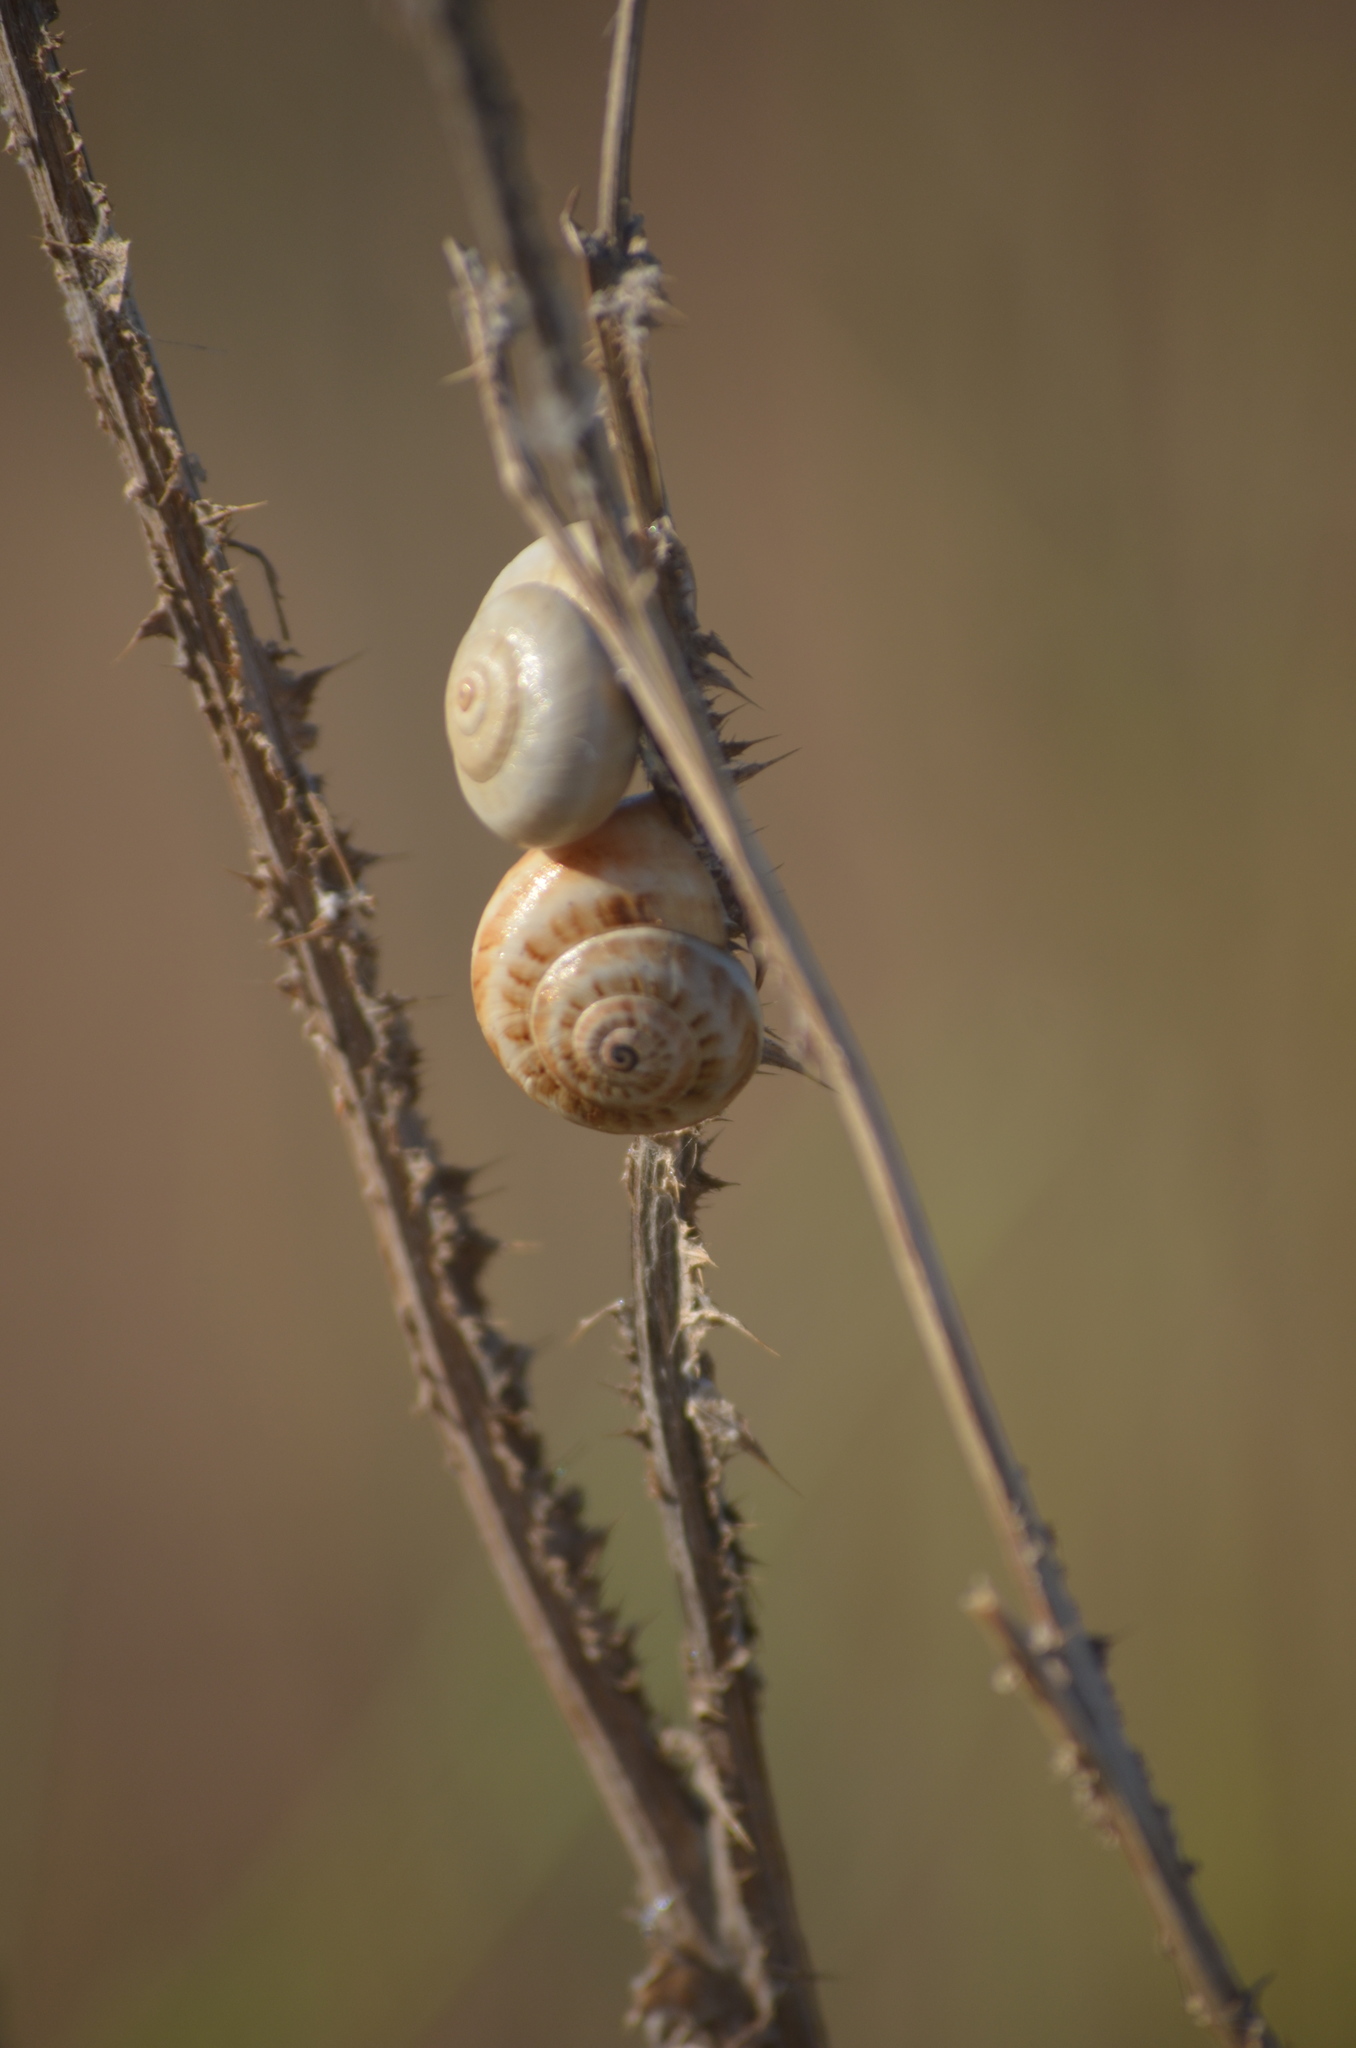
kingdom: Animalia
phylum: Mollusca
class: Gastropoda
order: Stylommatophora
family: Helicidae
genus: Theba
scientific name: Theba pisana
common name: White snail
